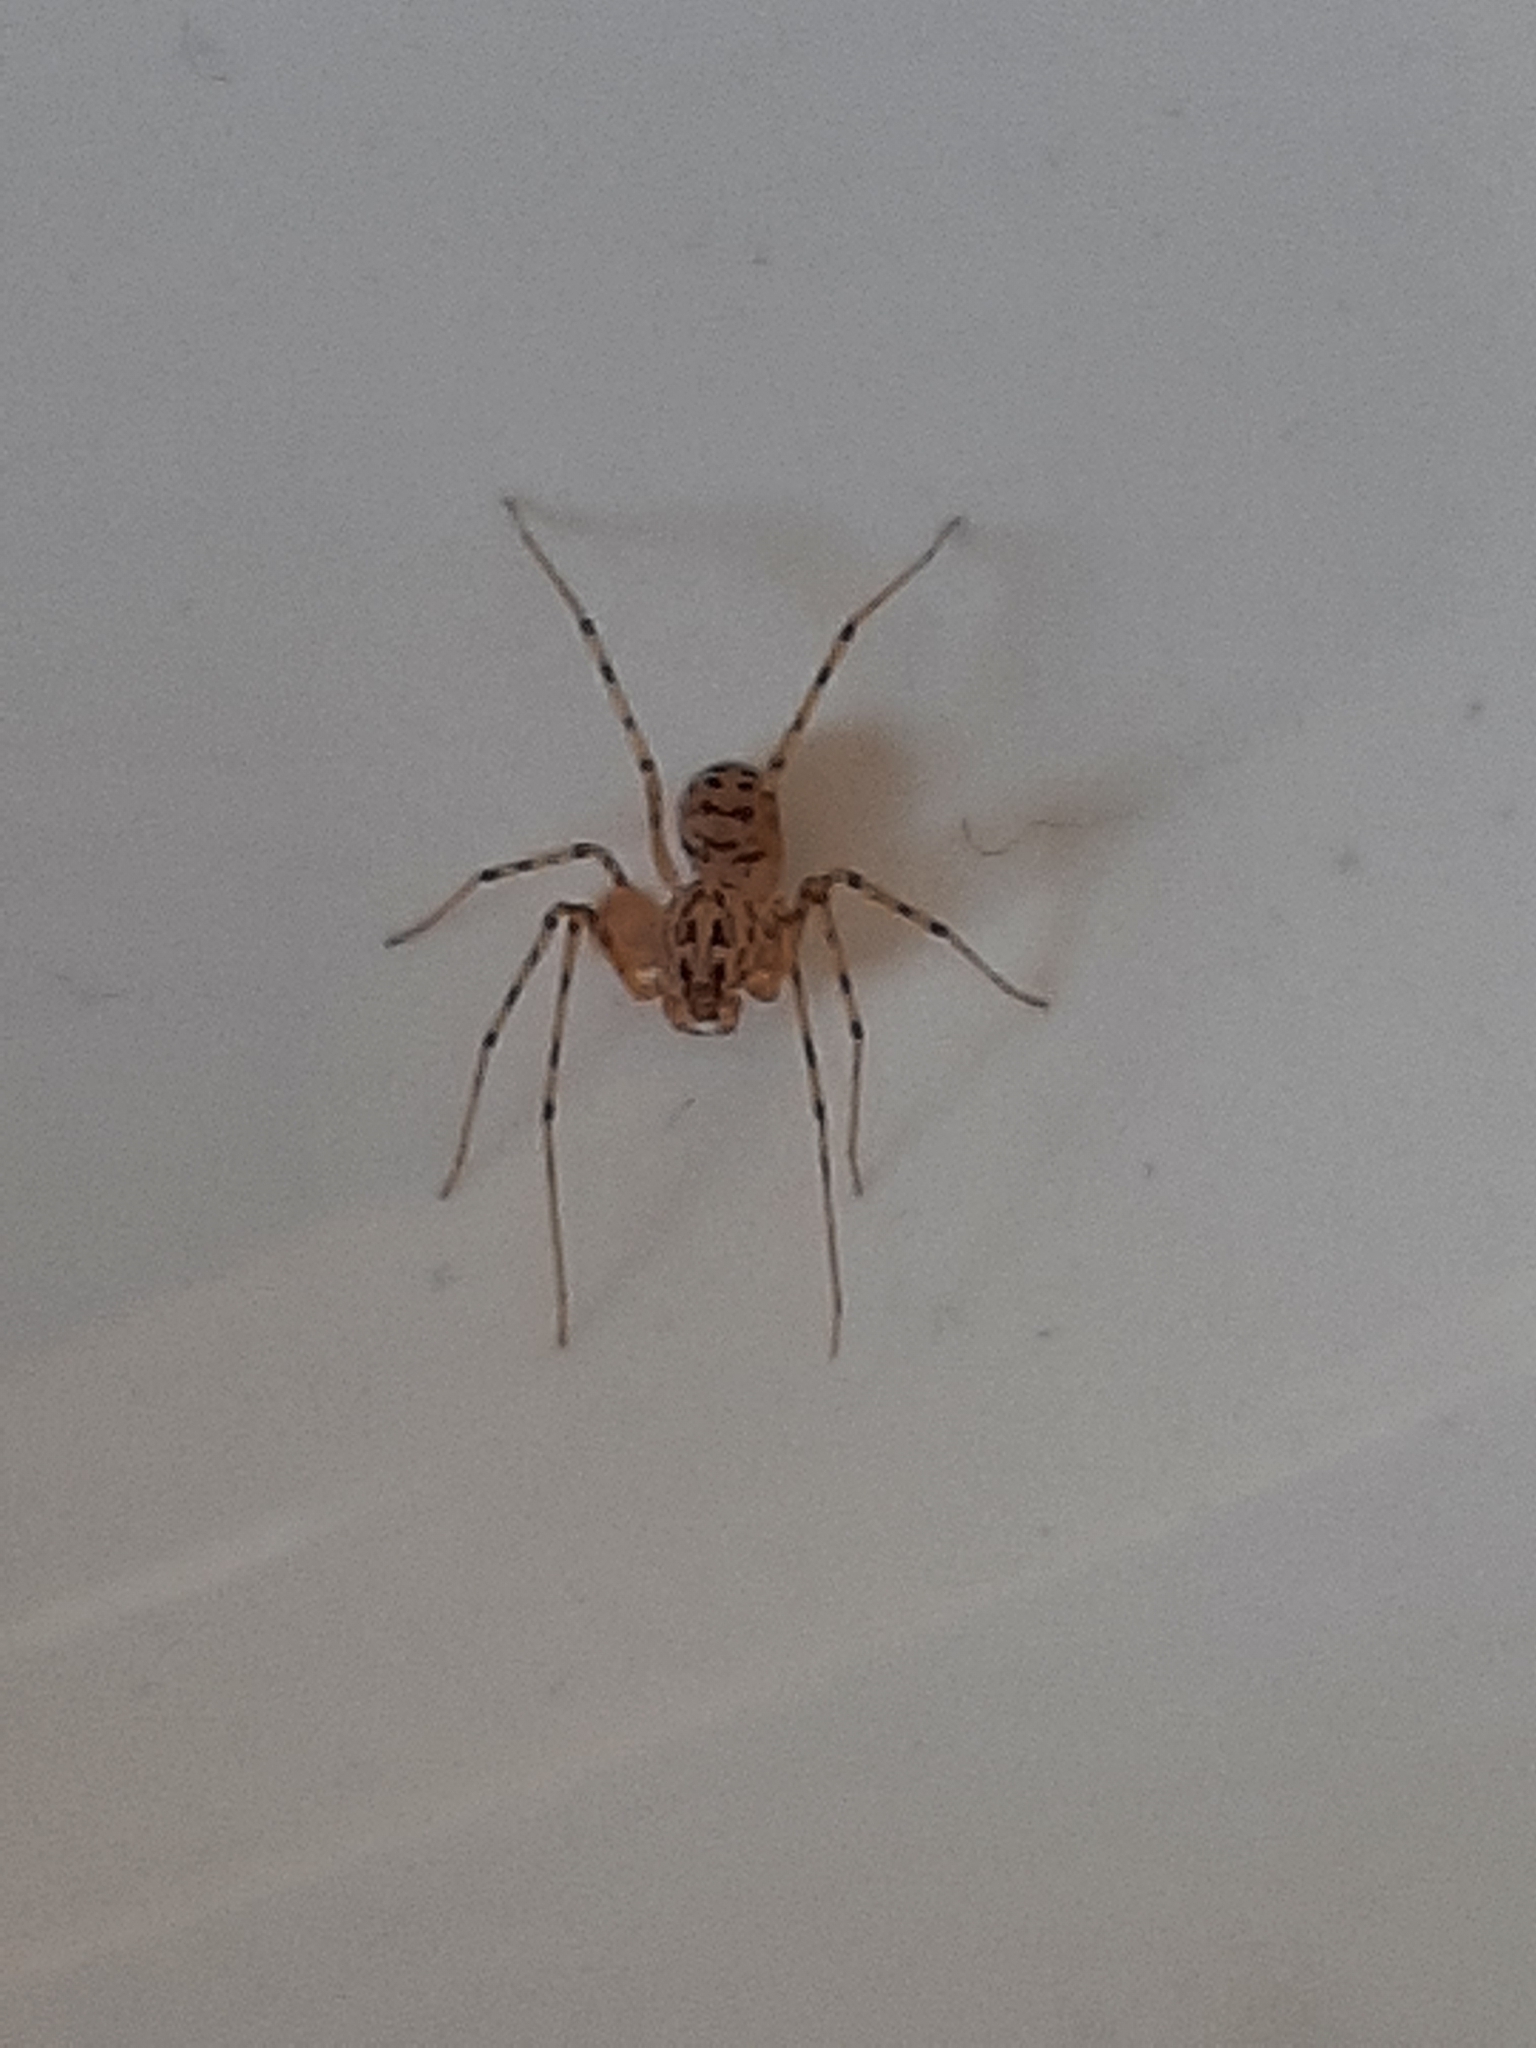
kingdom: Animalia
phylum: Arthropoda
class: Arachnida
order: Araneae
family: Scytodidae
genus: Scytodes
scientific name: Scytodes thoracica
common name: Spitting spider
